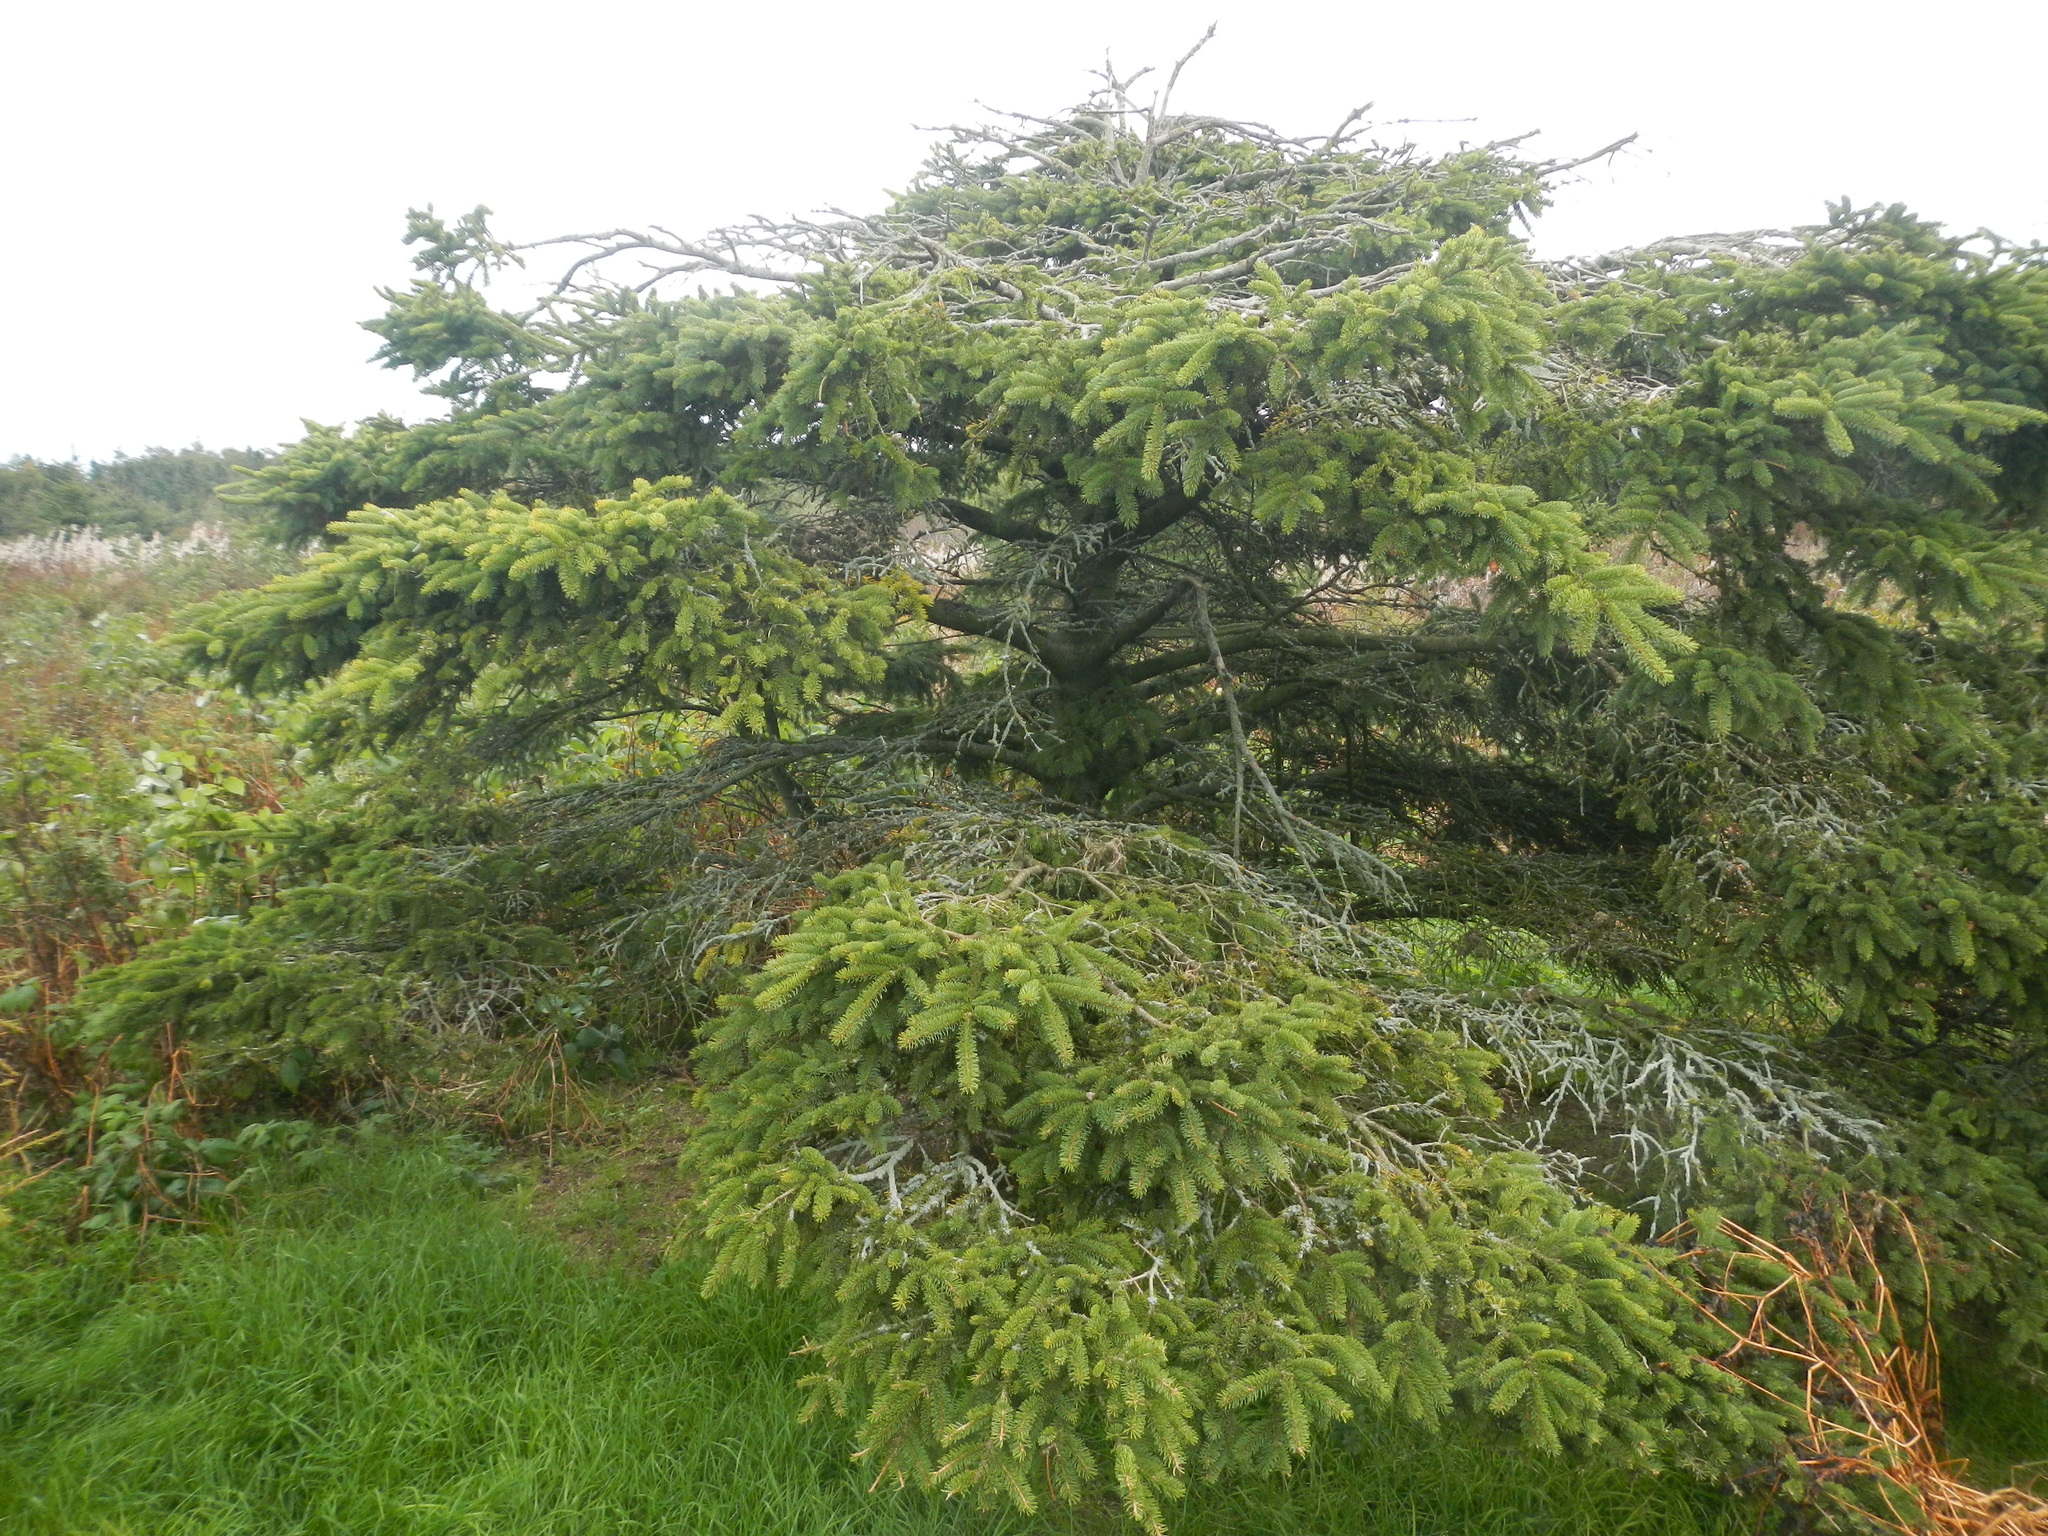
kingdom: Plantae
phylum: Tracheophyta
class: Pinopsida
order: Pinales
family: Pinaceae
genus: Picea
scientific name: Picea glauca
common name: White spruce
